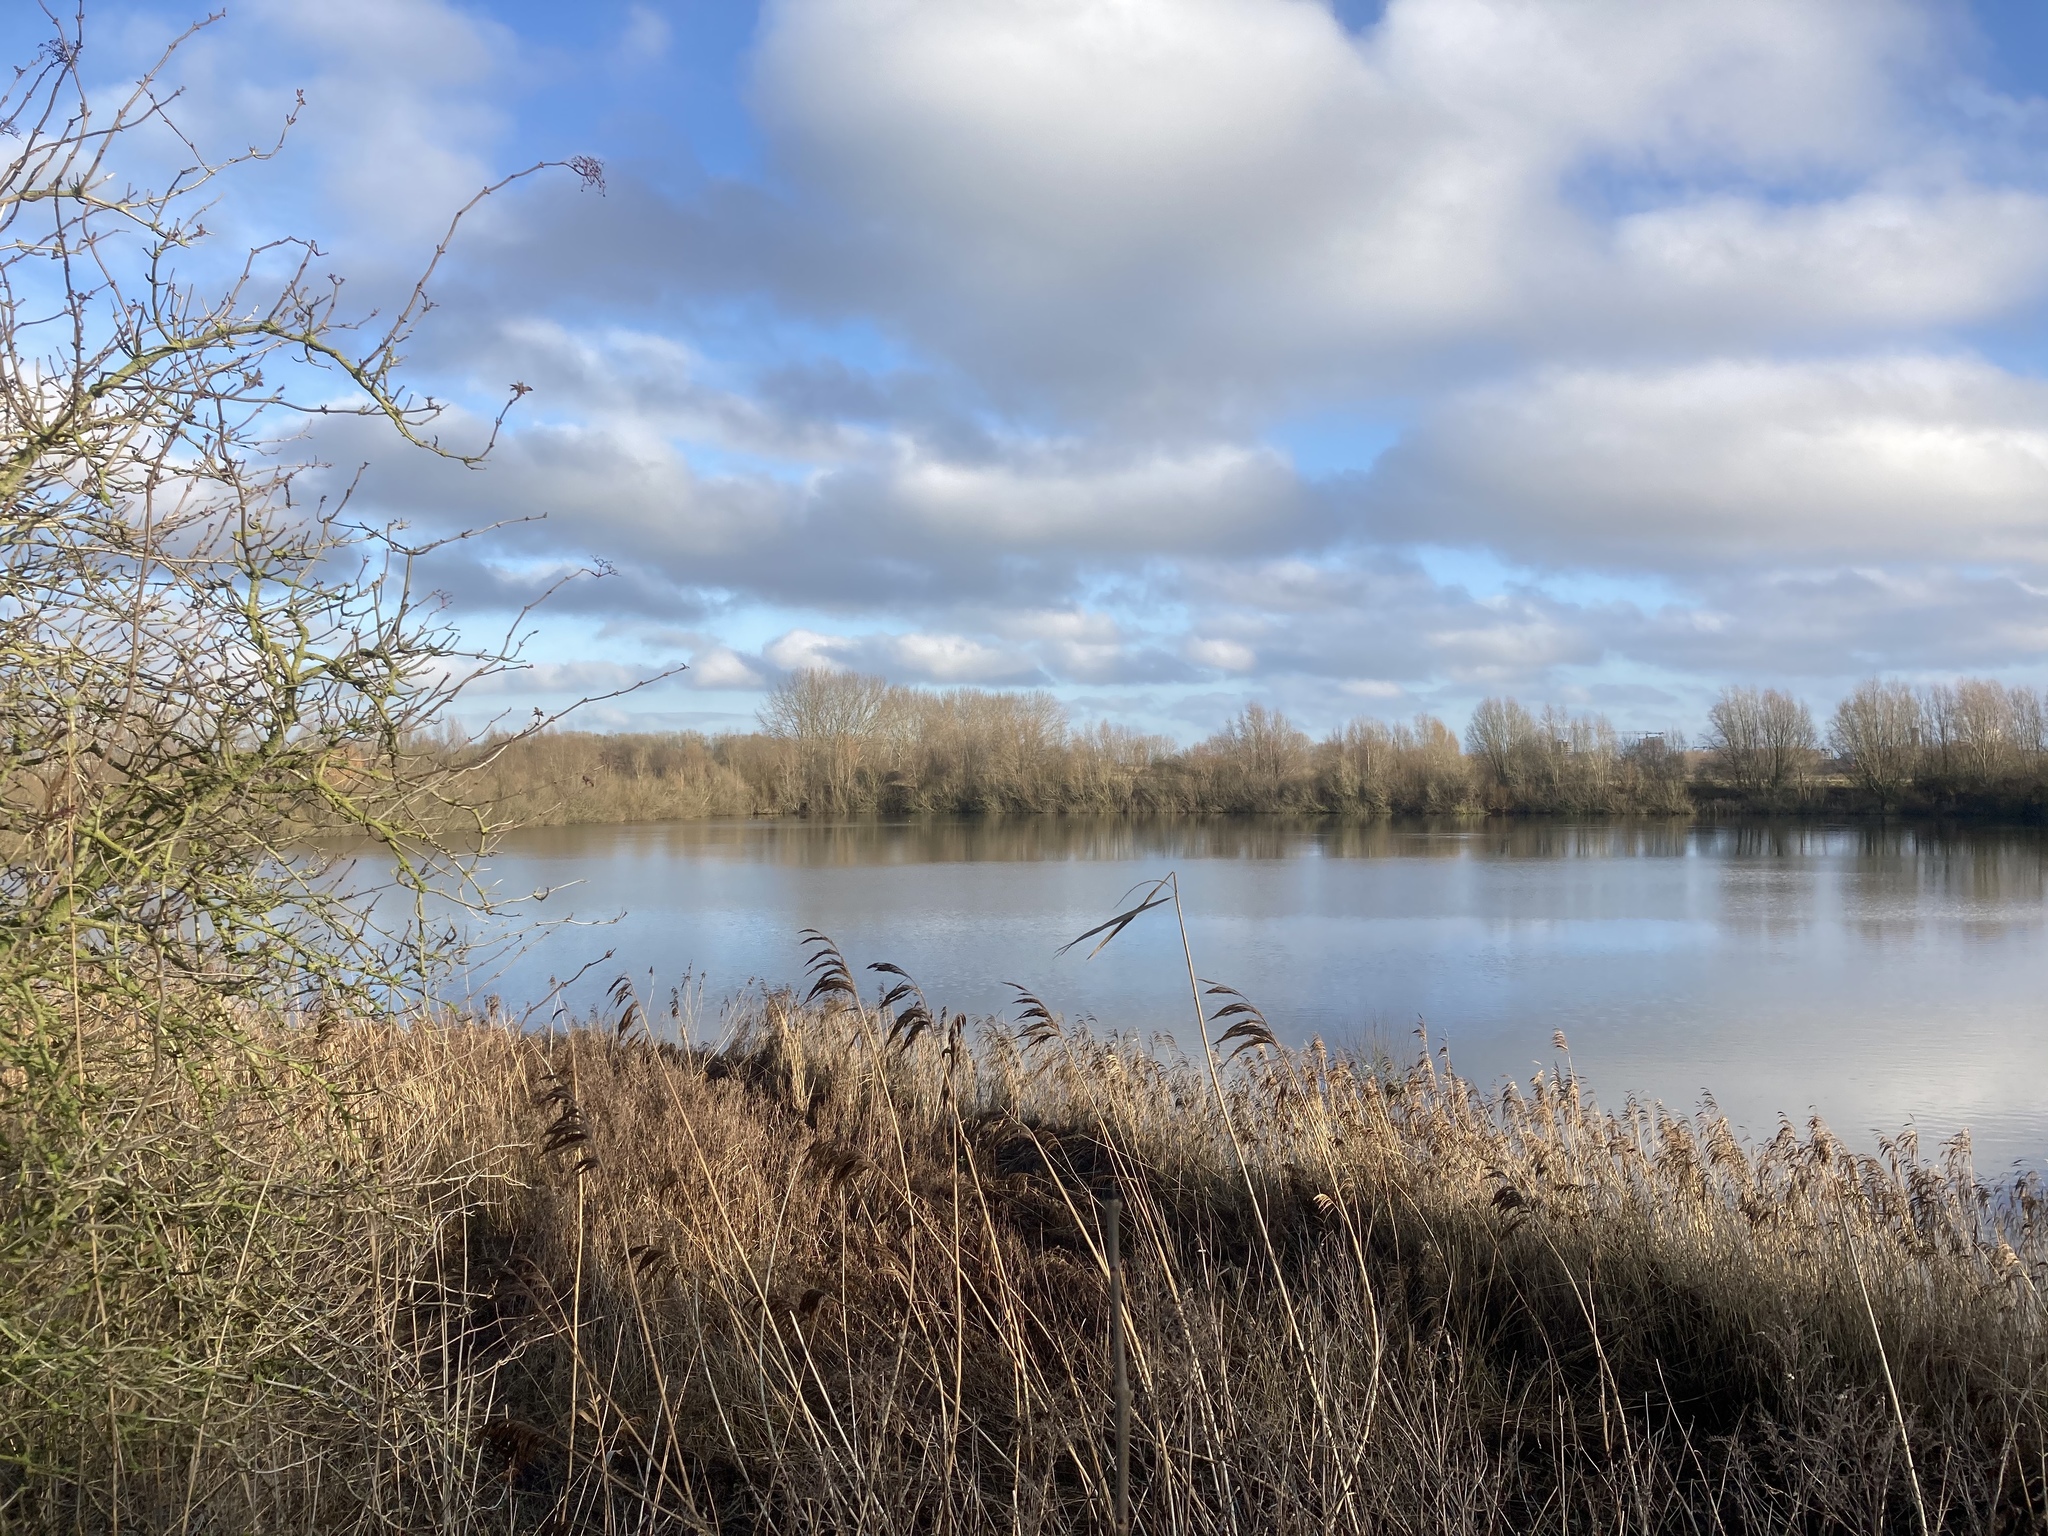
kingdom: Plantae
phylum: Tracheophyta
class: Liliopsida
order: Poales
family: Poaceae
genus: Phragmites
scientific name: Phragmites australis
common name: Common reed
